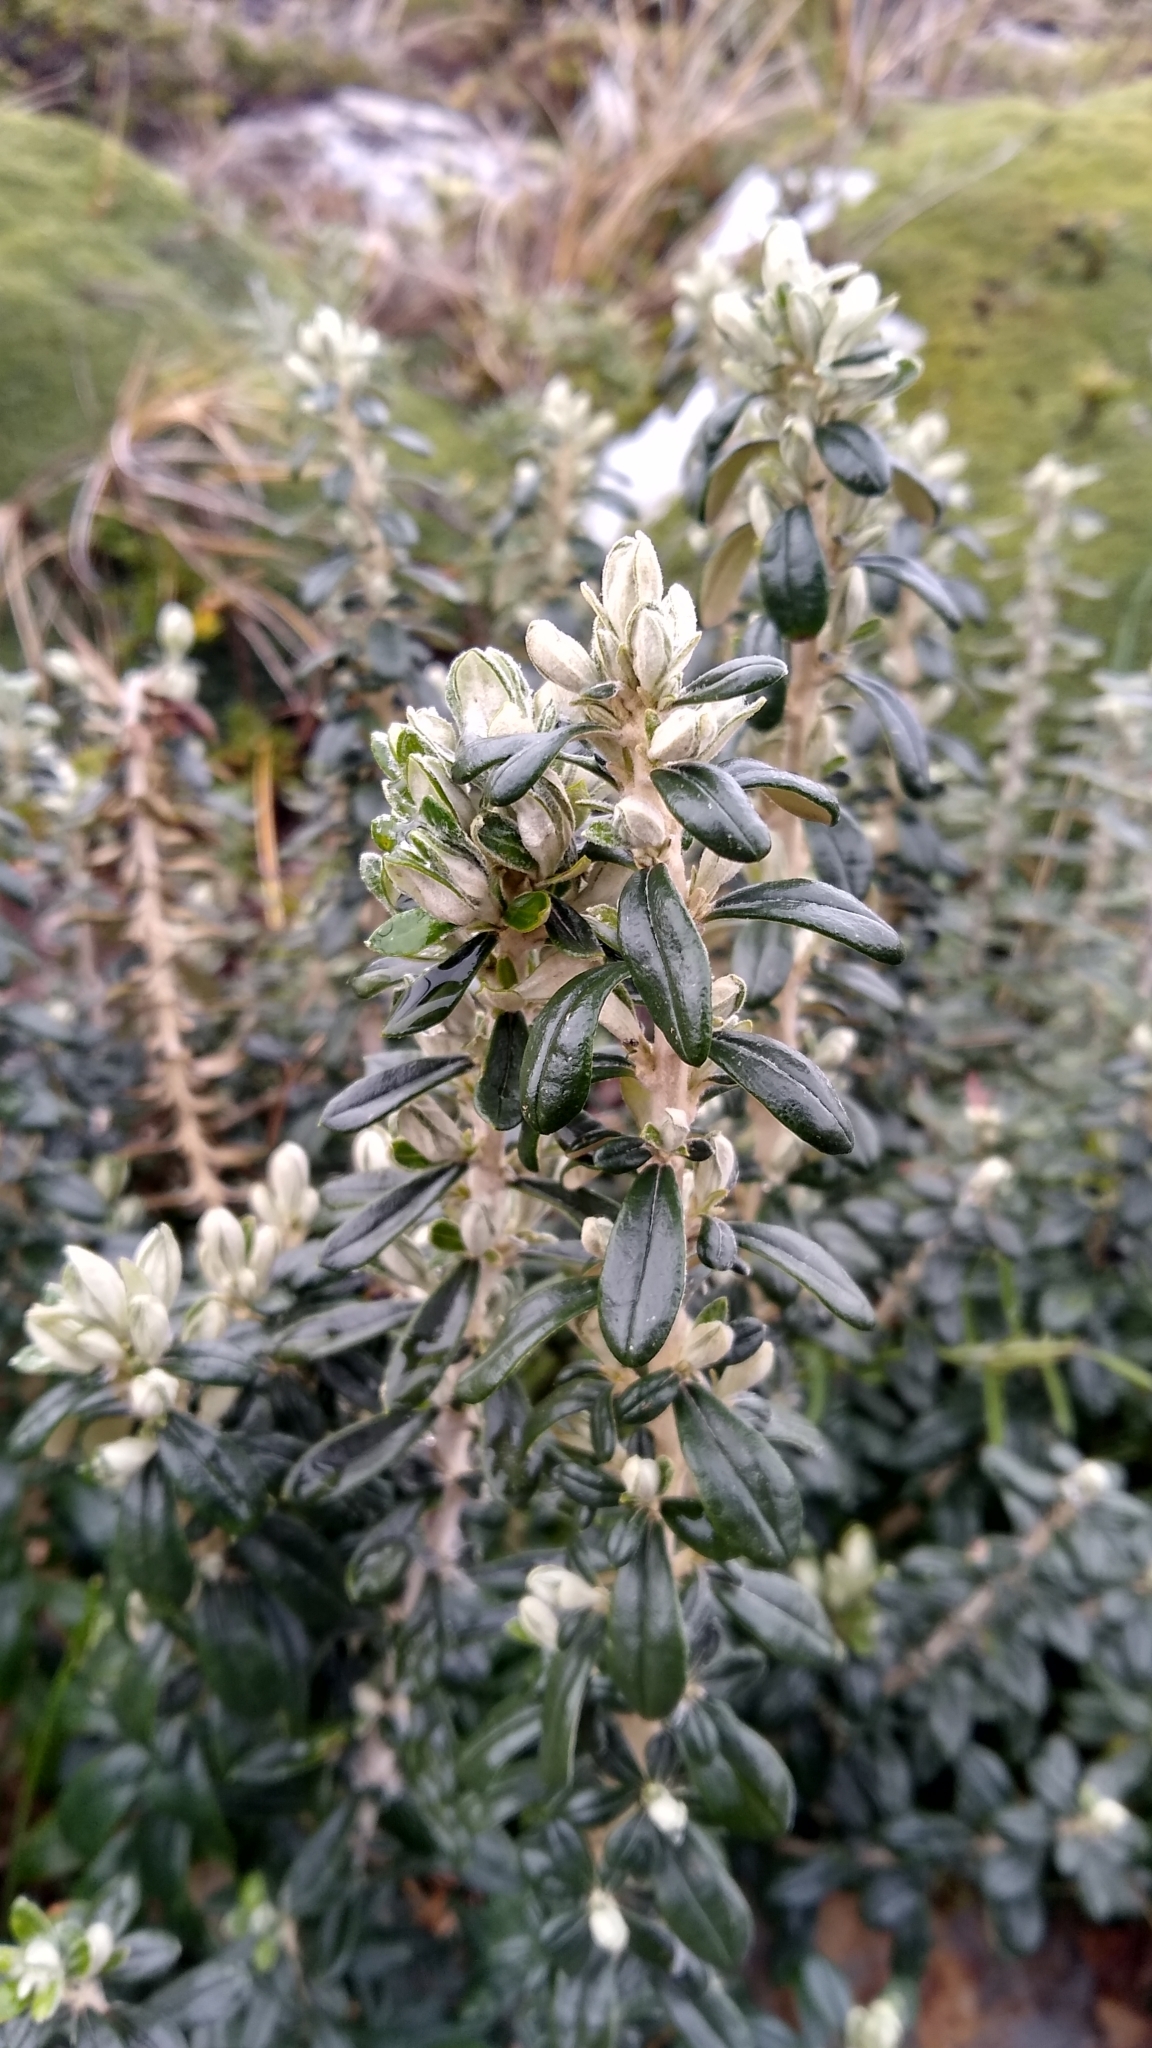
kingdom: Plantae
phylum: Tracheophyta
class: Magnoliopsida
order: Asterales
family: Asteraceae
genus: Chiliotrichum
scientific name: Chiliotrichum diffusum
